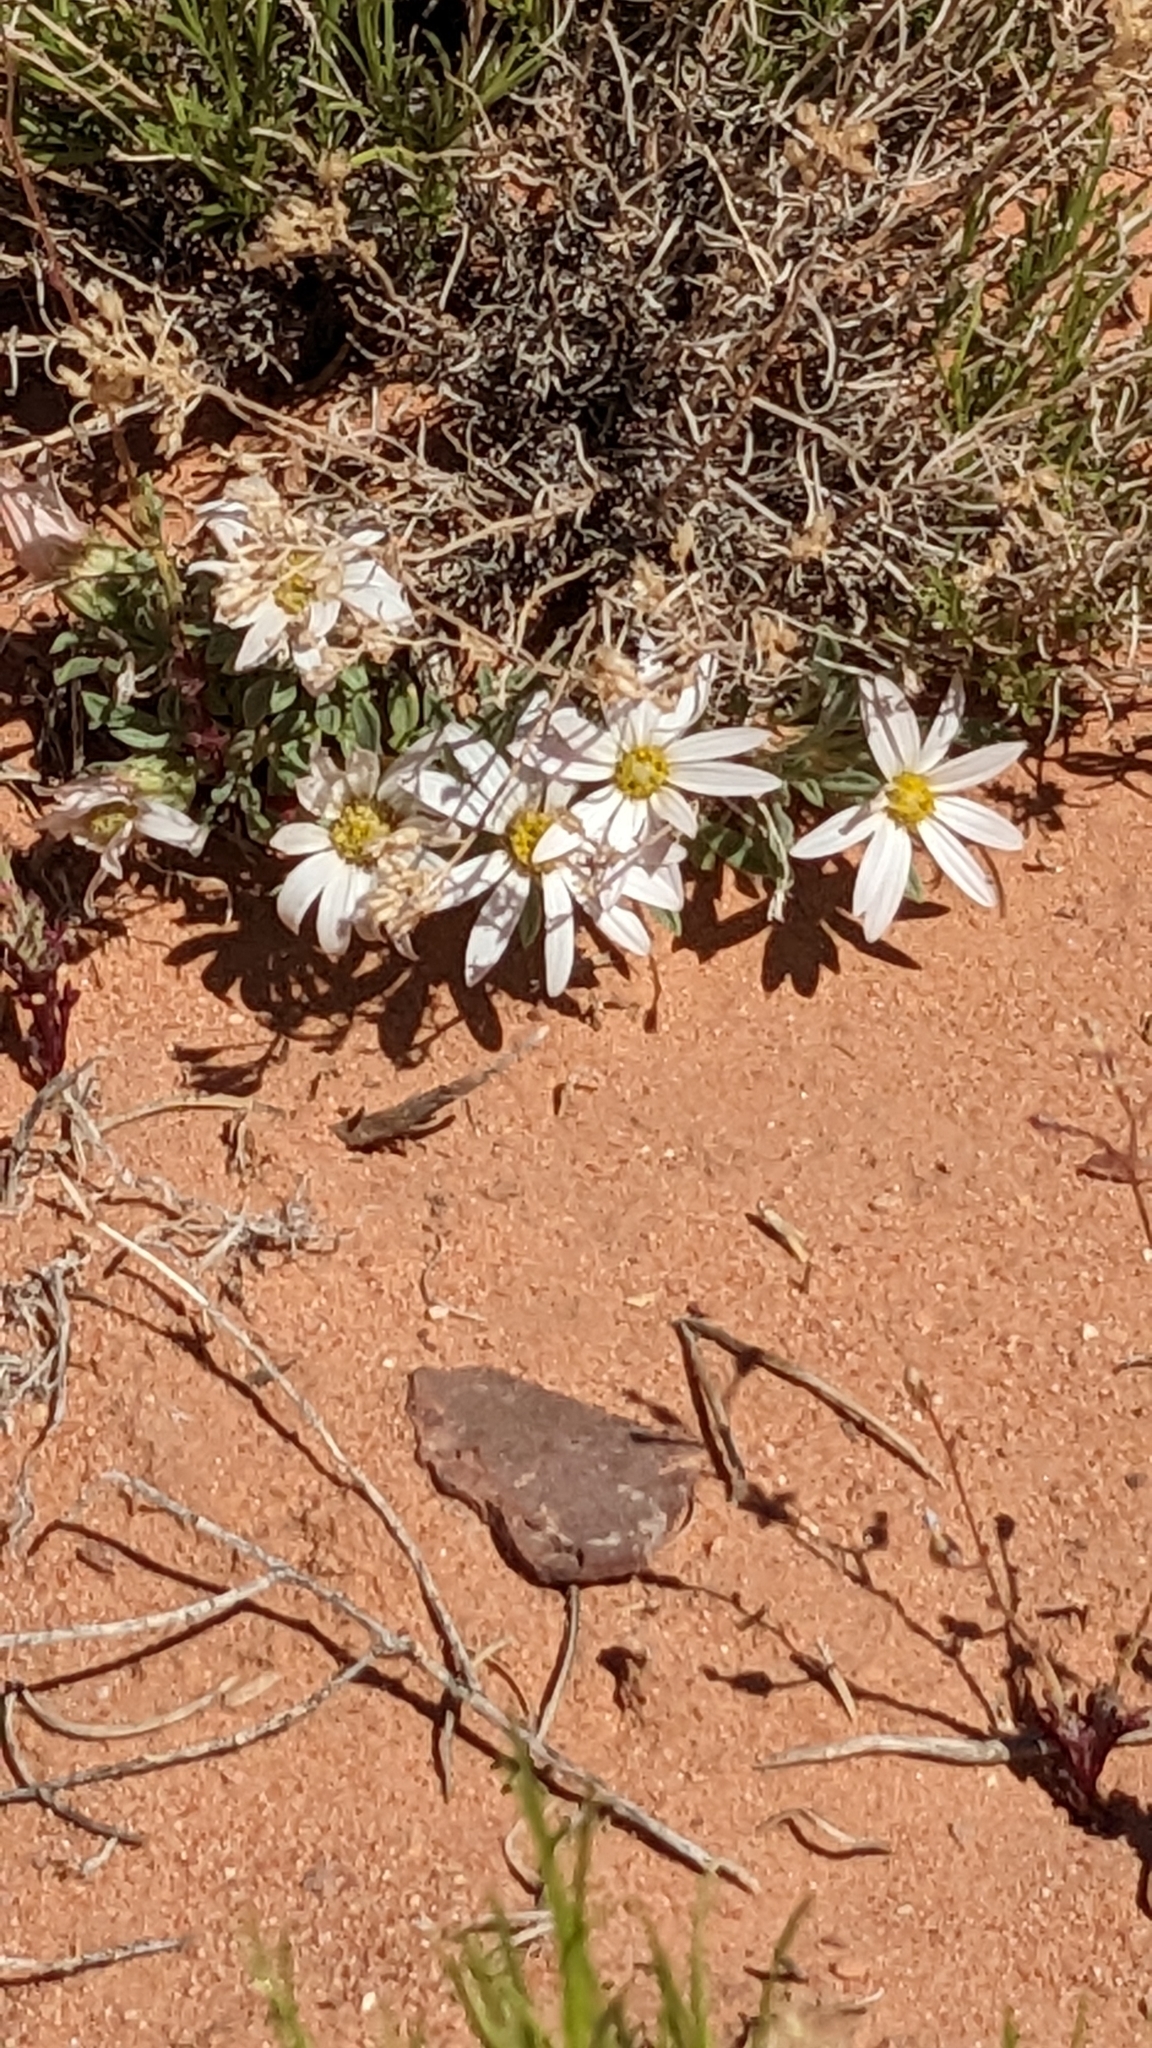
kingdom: Plantae
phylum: Tracheophyta
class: Magnoliopsida
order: Asterales
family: Asteraceae
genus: Townsendia
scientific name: Townsendia incana
